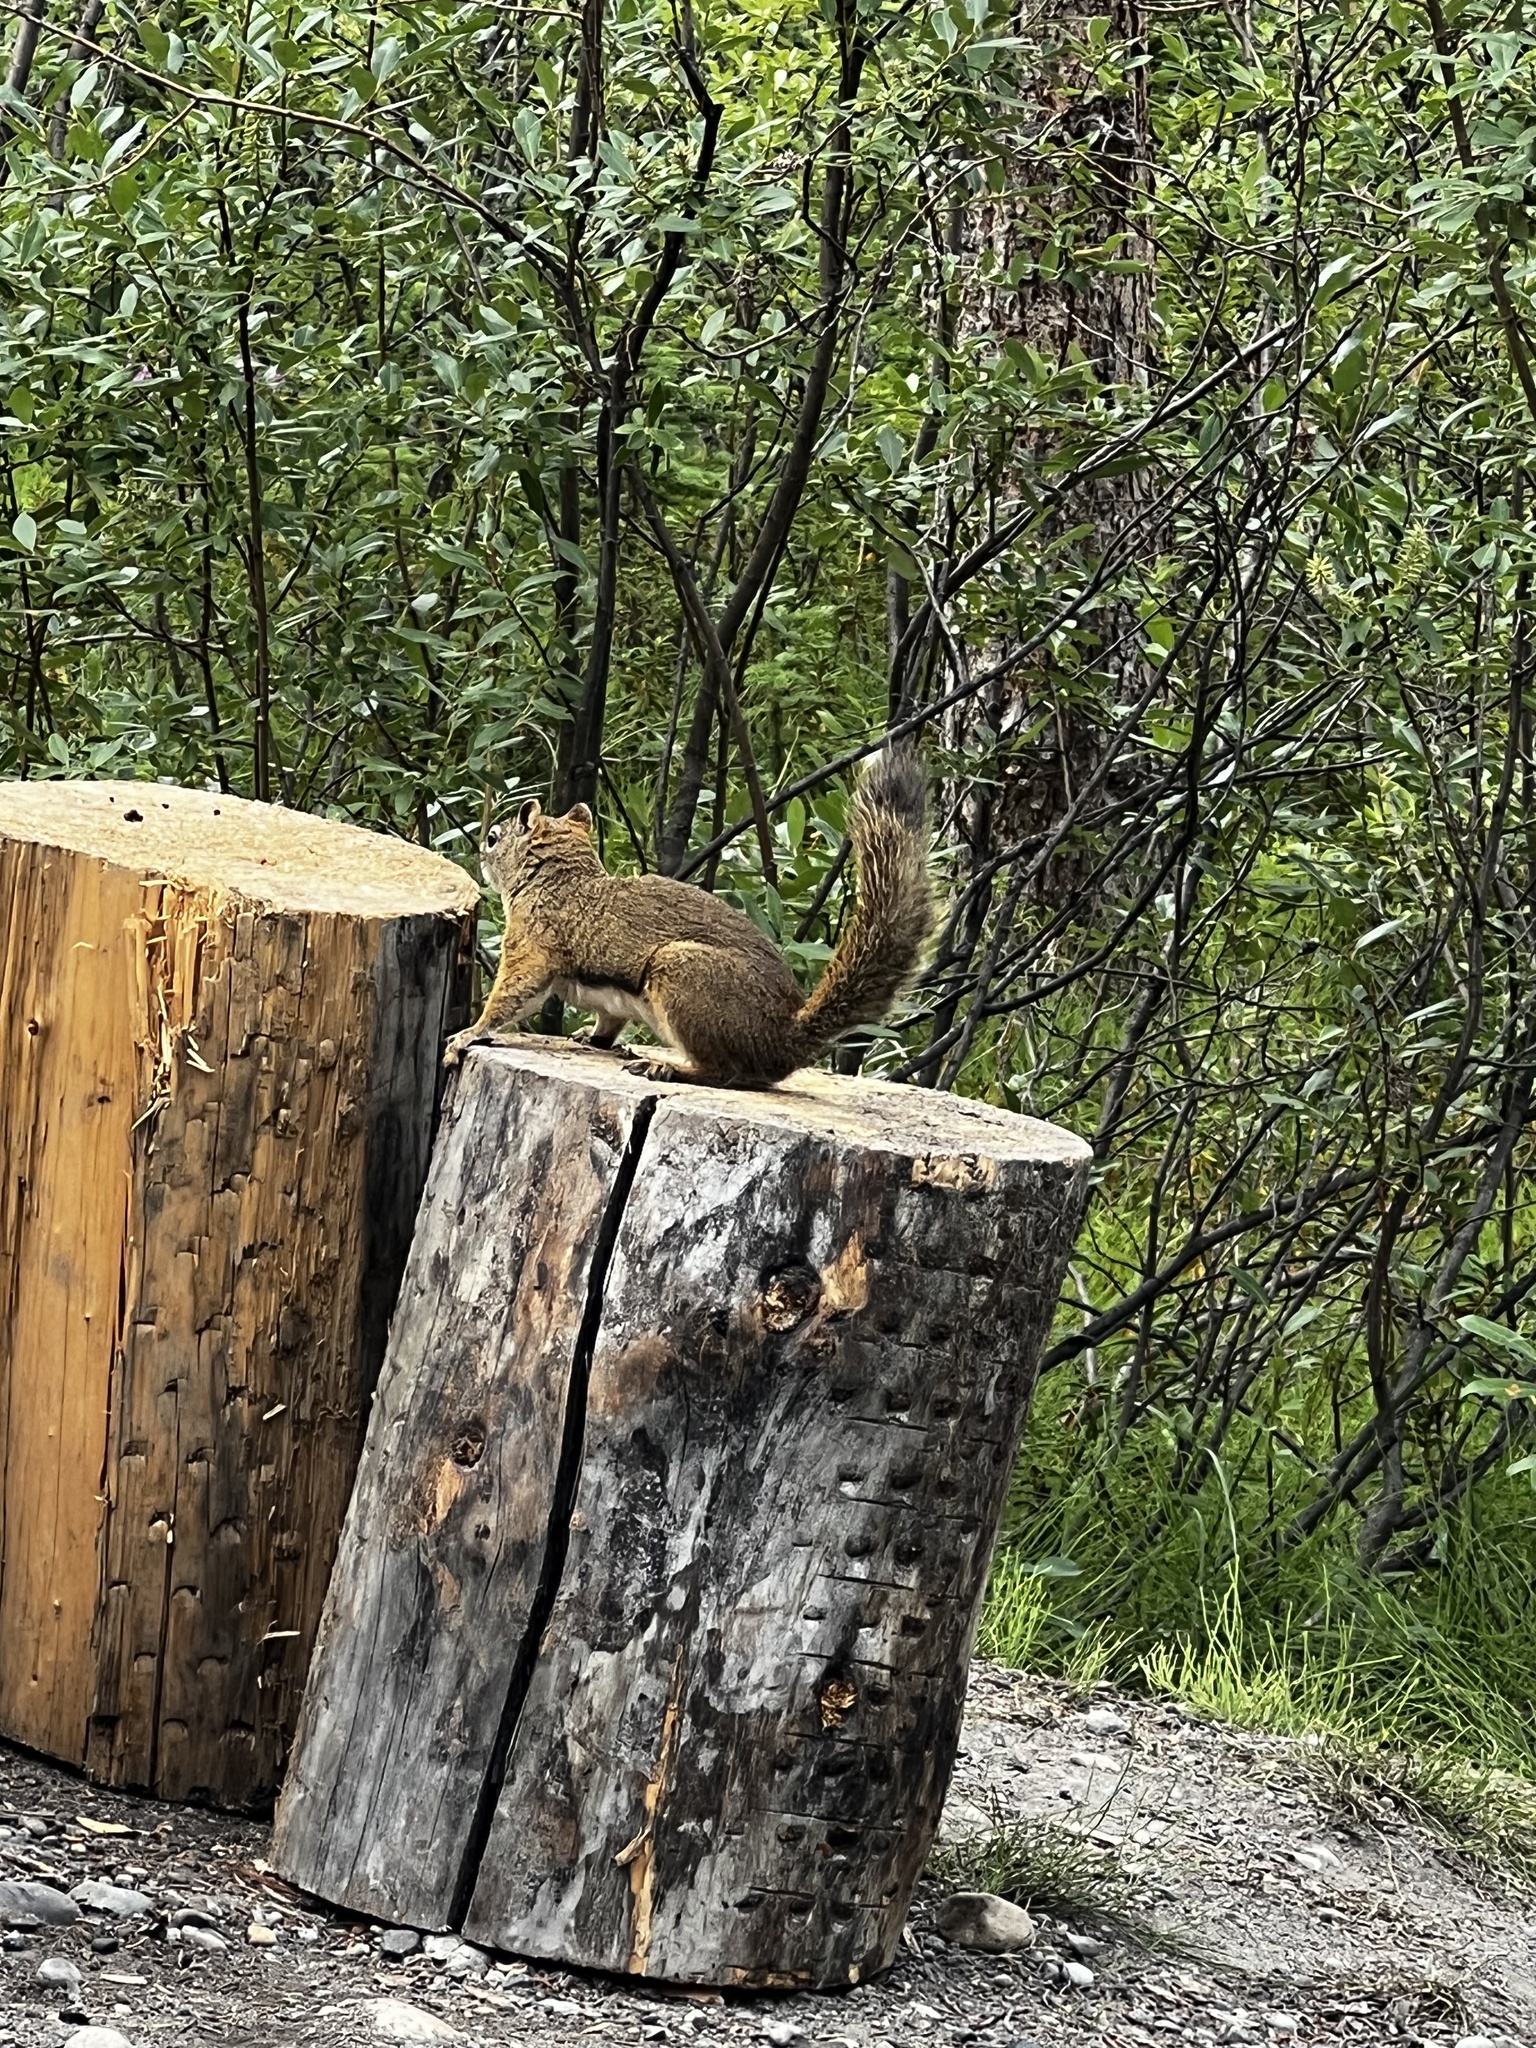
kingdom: Animalia
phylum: Chordata
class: Mammalia
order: Rodentia
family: Sciuridae
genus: Tamiasciurus
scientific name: Tamiasciurus hudsonicus
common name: Red squirrel
